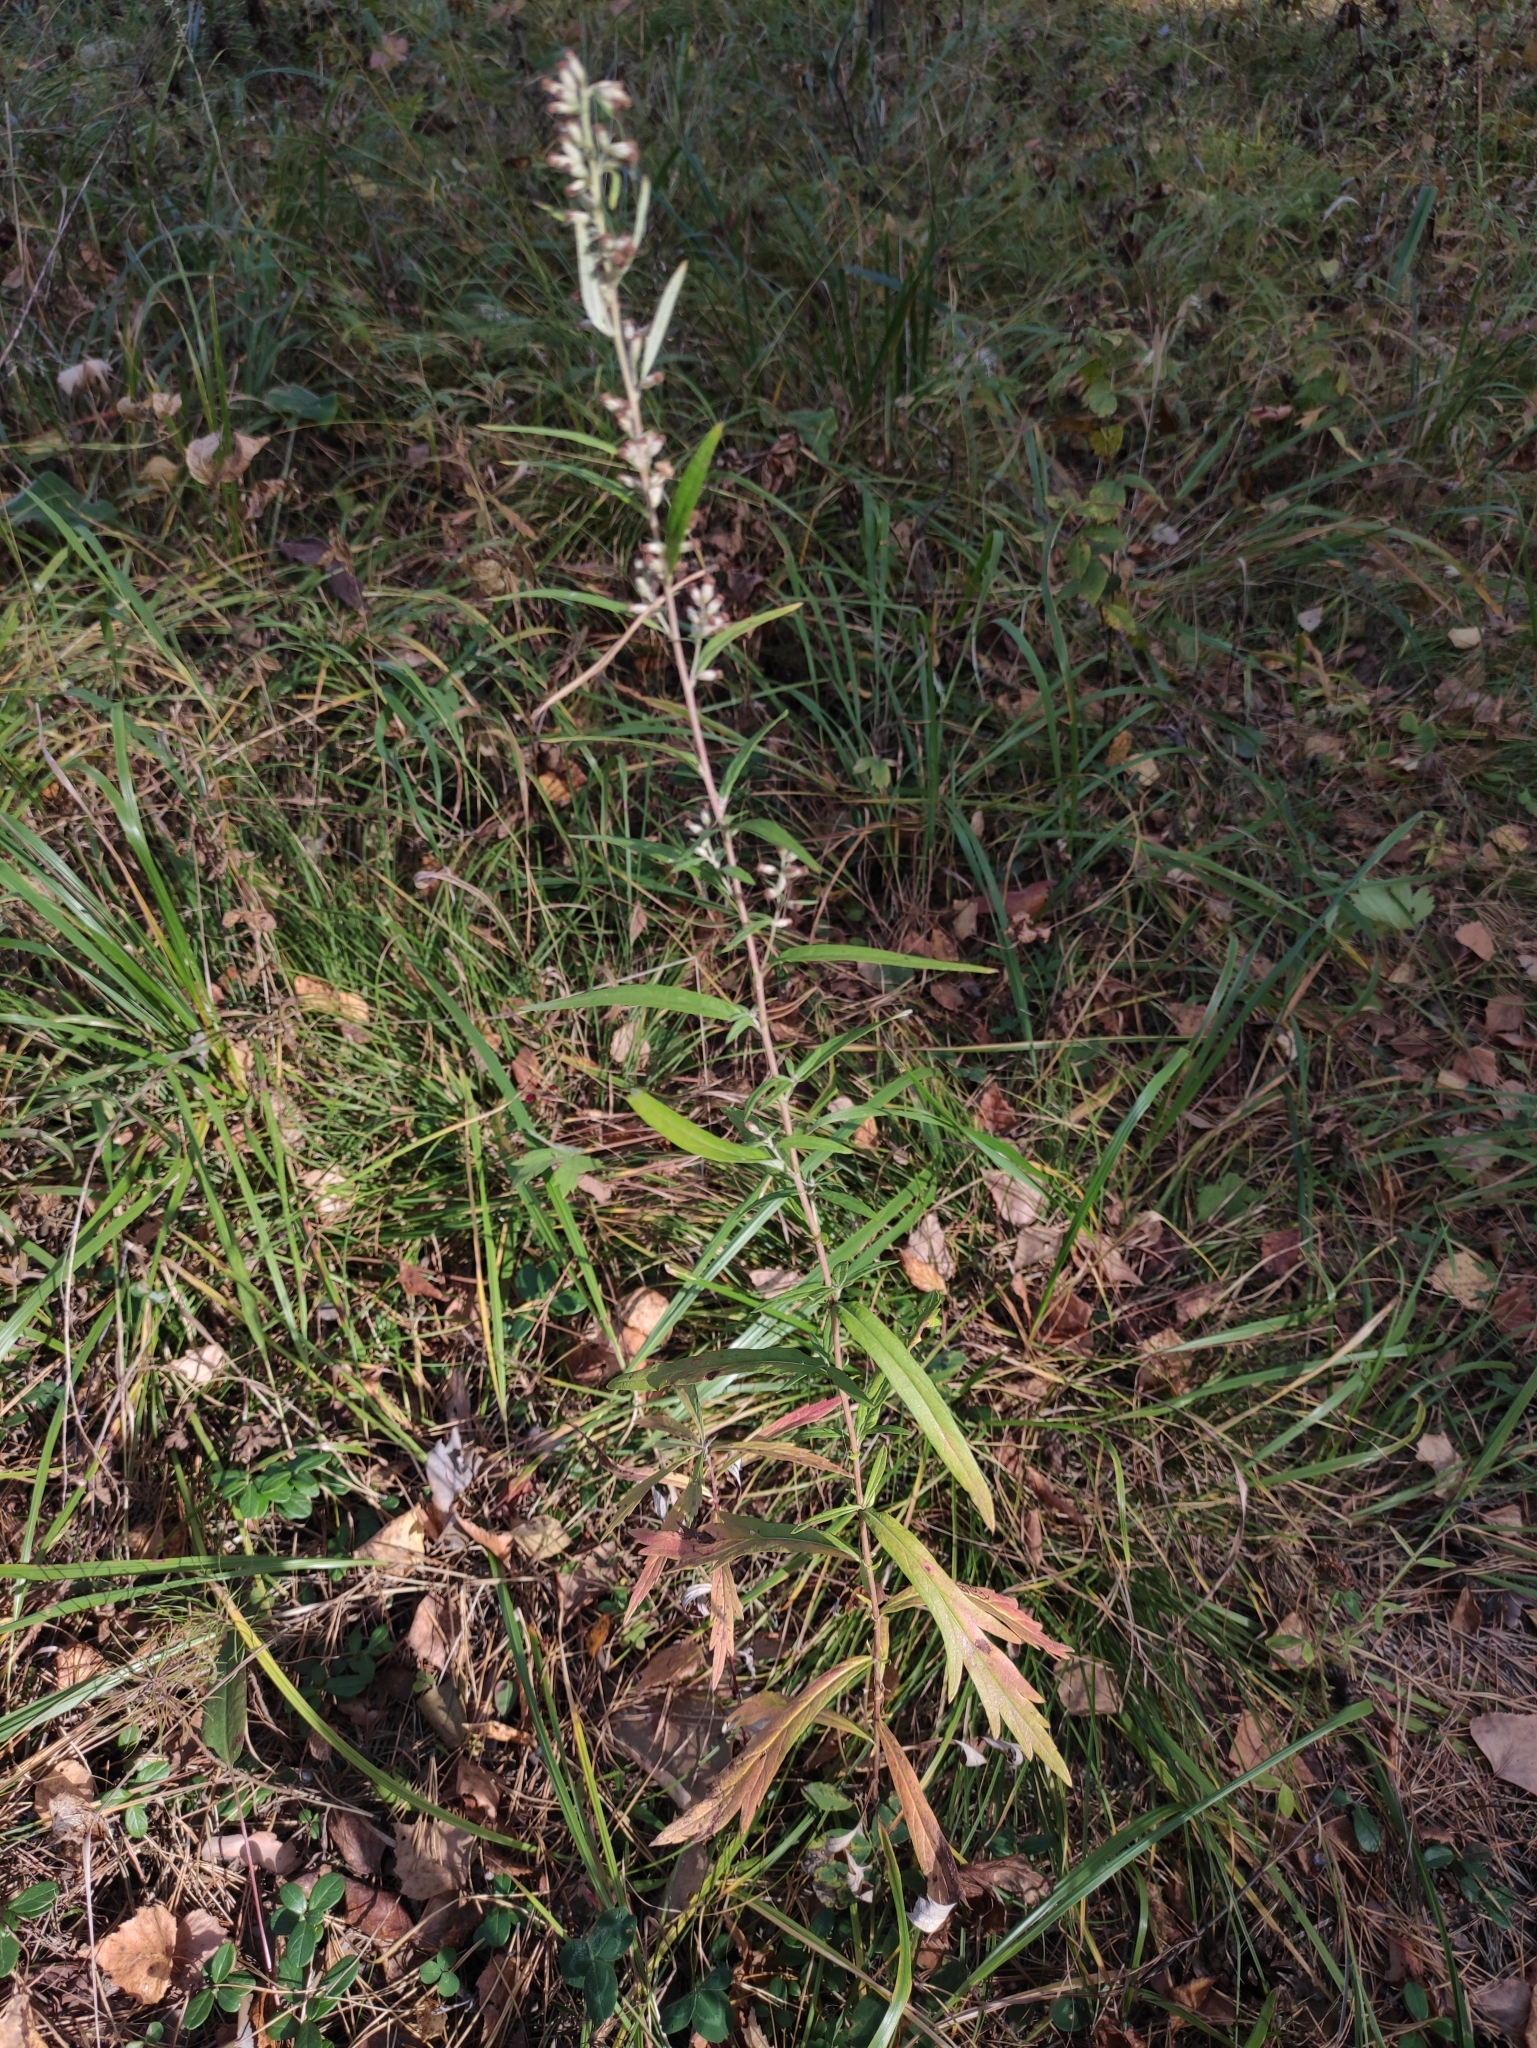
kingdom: Plantae
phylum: Tracheophyta
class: Magnoliopsida
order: Asterales
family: Asteraceae
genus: Artemisia
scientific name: Artemisia integrifolia
